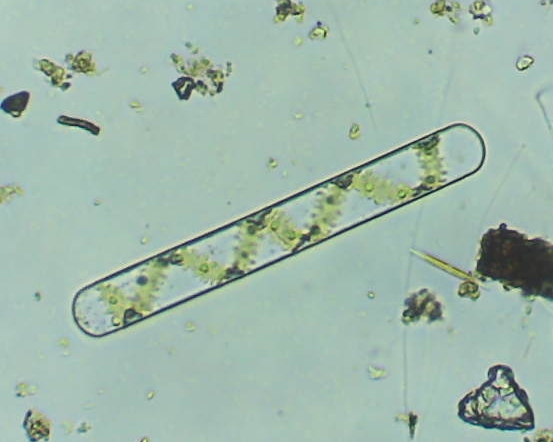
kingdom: Plantae
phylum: Charophyta
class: Zygnematophyceae
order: Zygnematales
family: Zygnemataceae
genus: Spirogyra
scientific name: Spirogyra
